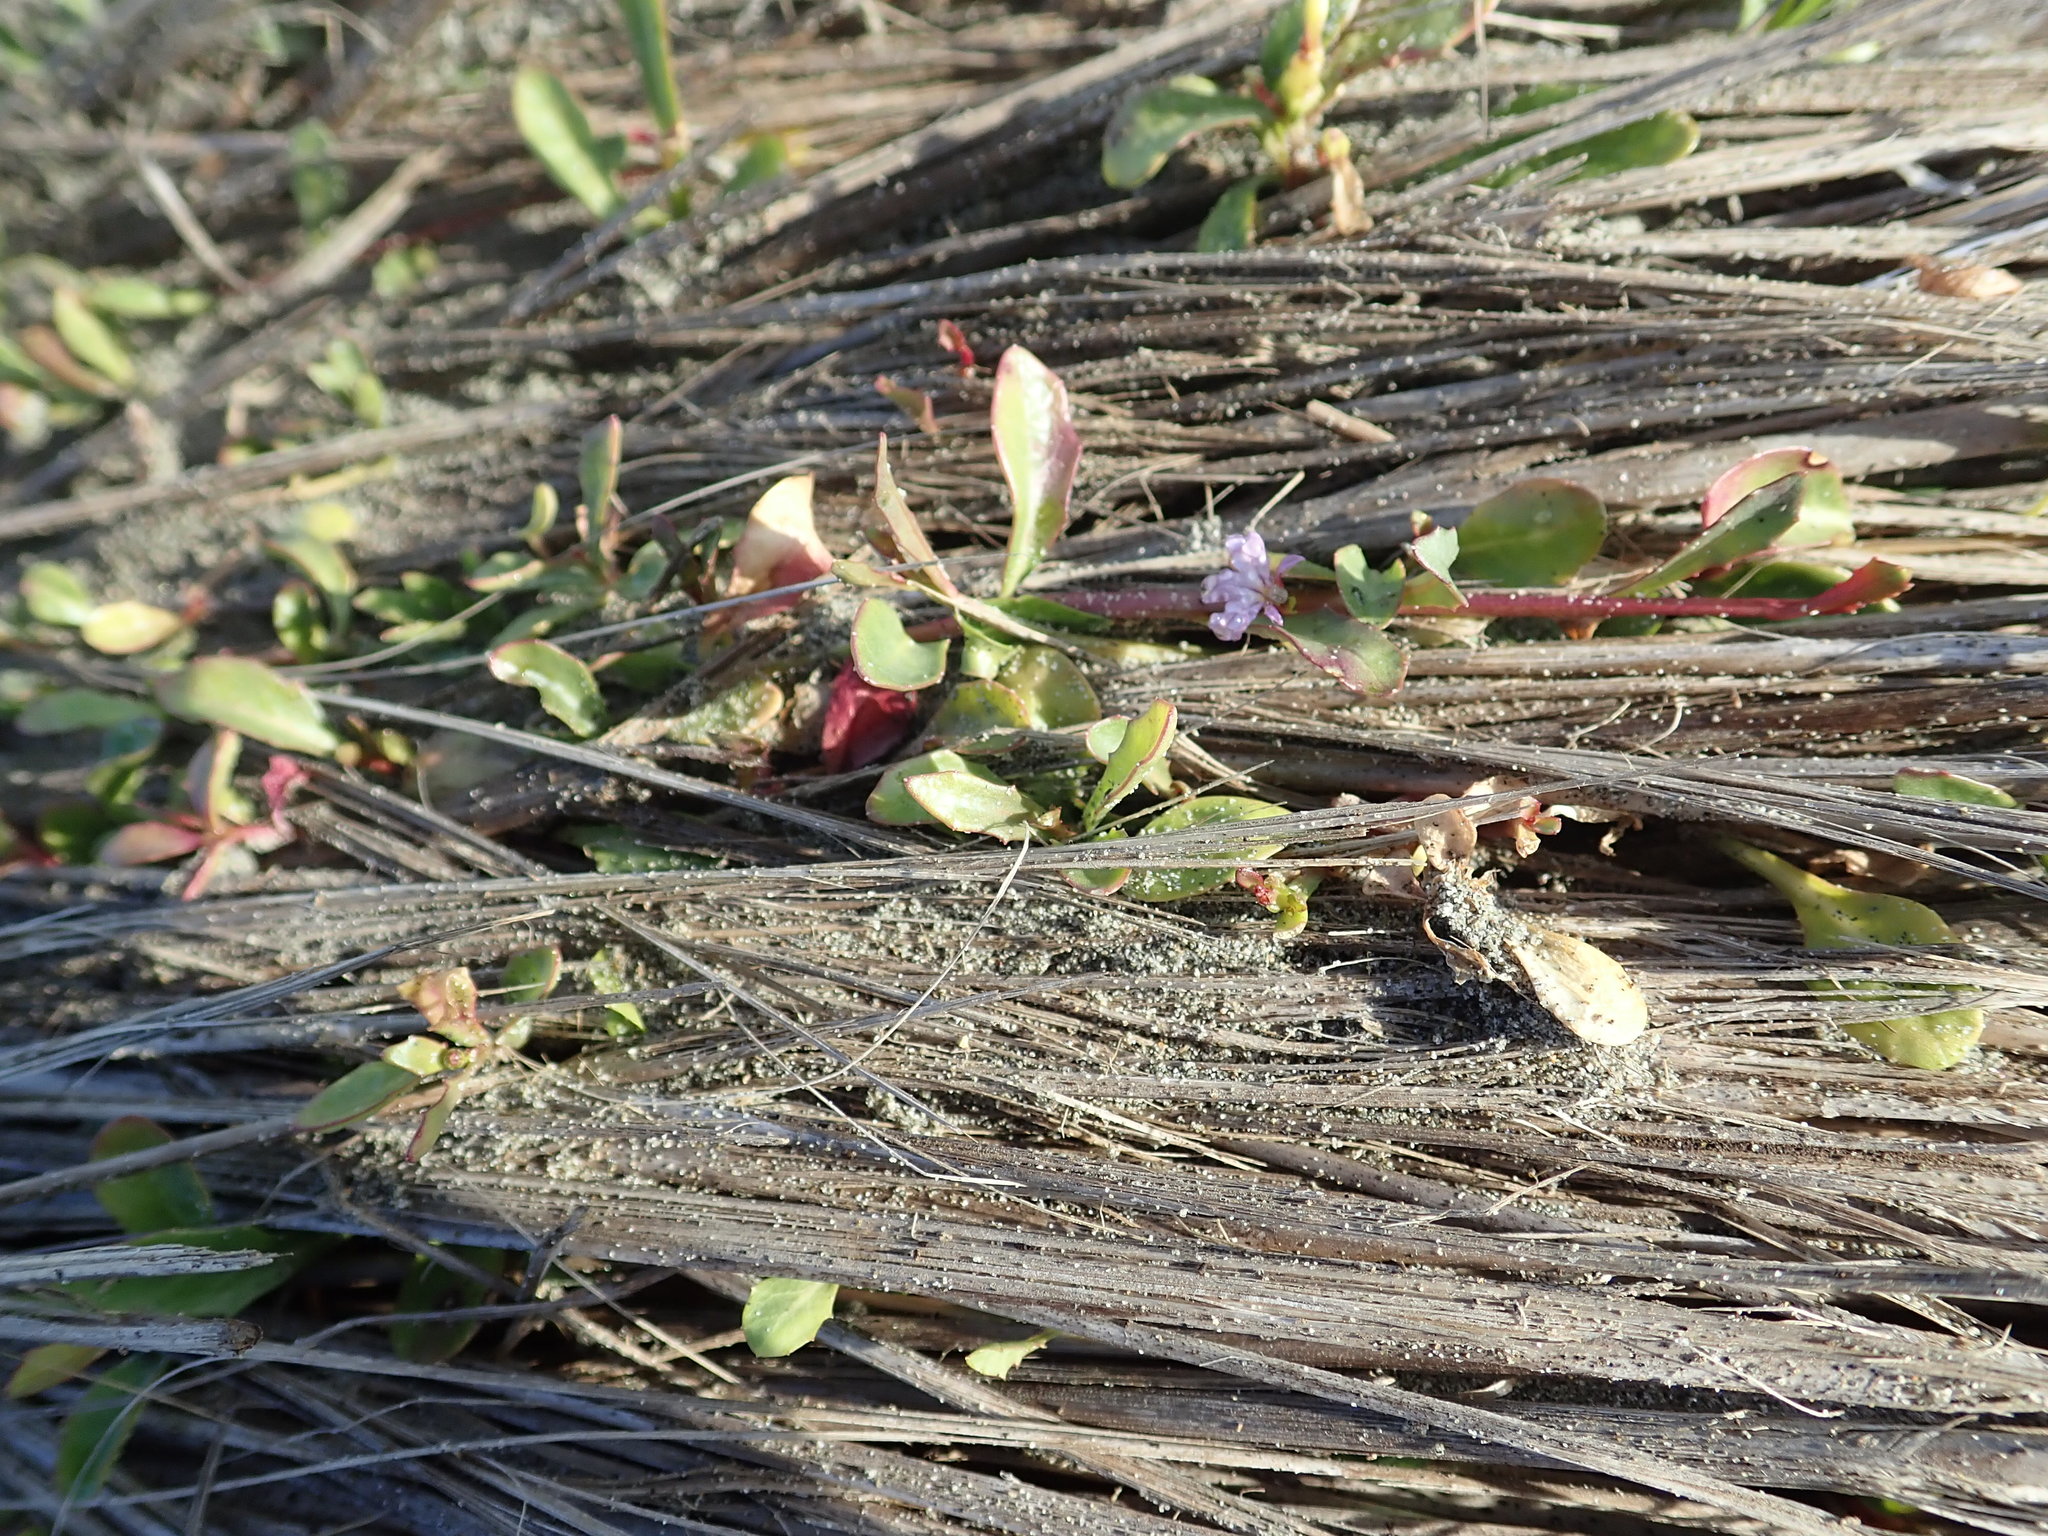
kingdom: Plantae
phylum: Tracheophyta
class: Magnoliopsida
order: Asterales
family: Campanulaceae
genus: Lobelia
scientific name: Lobelia anceps
